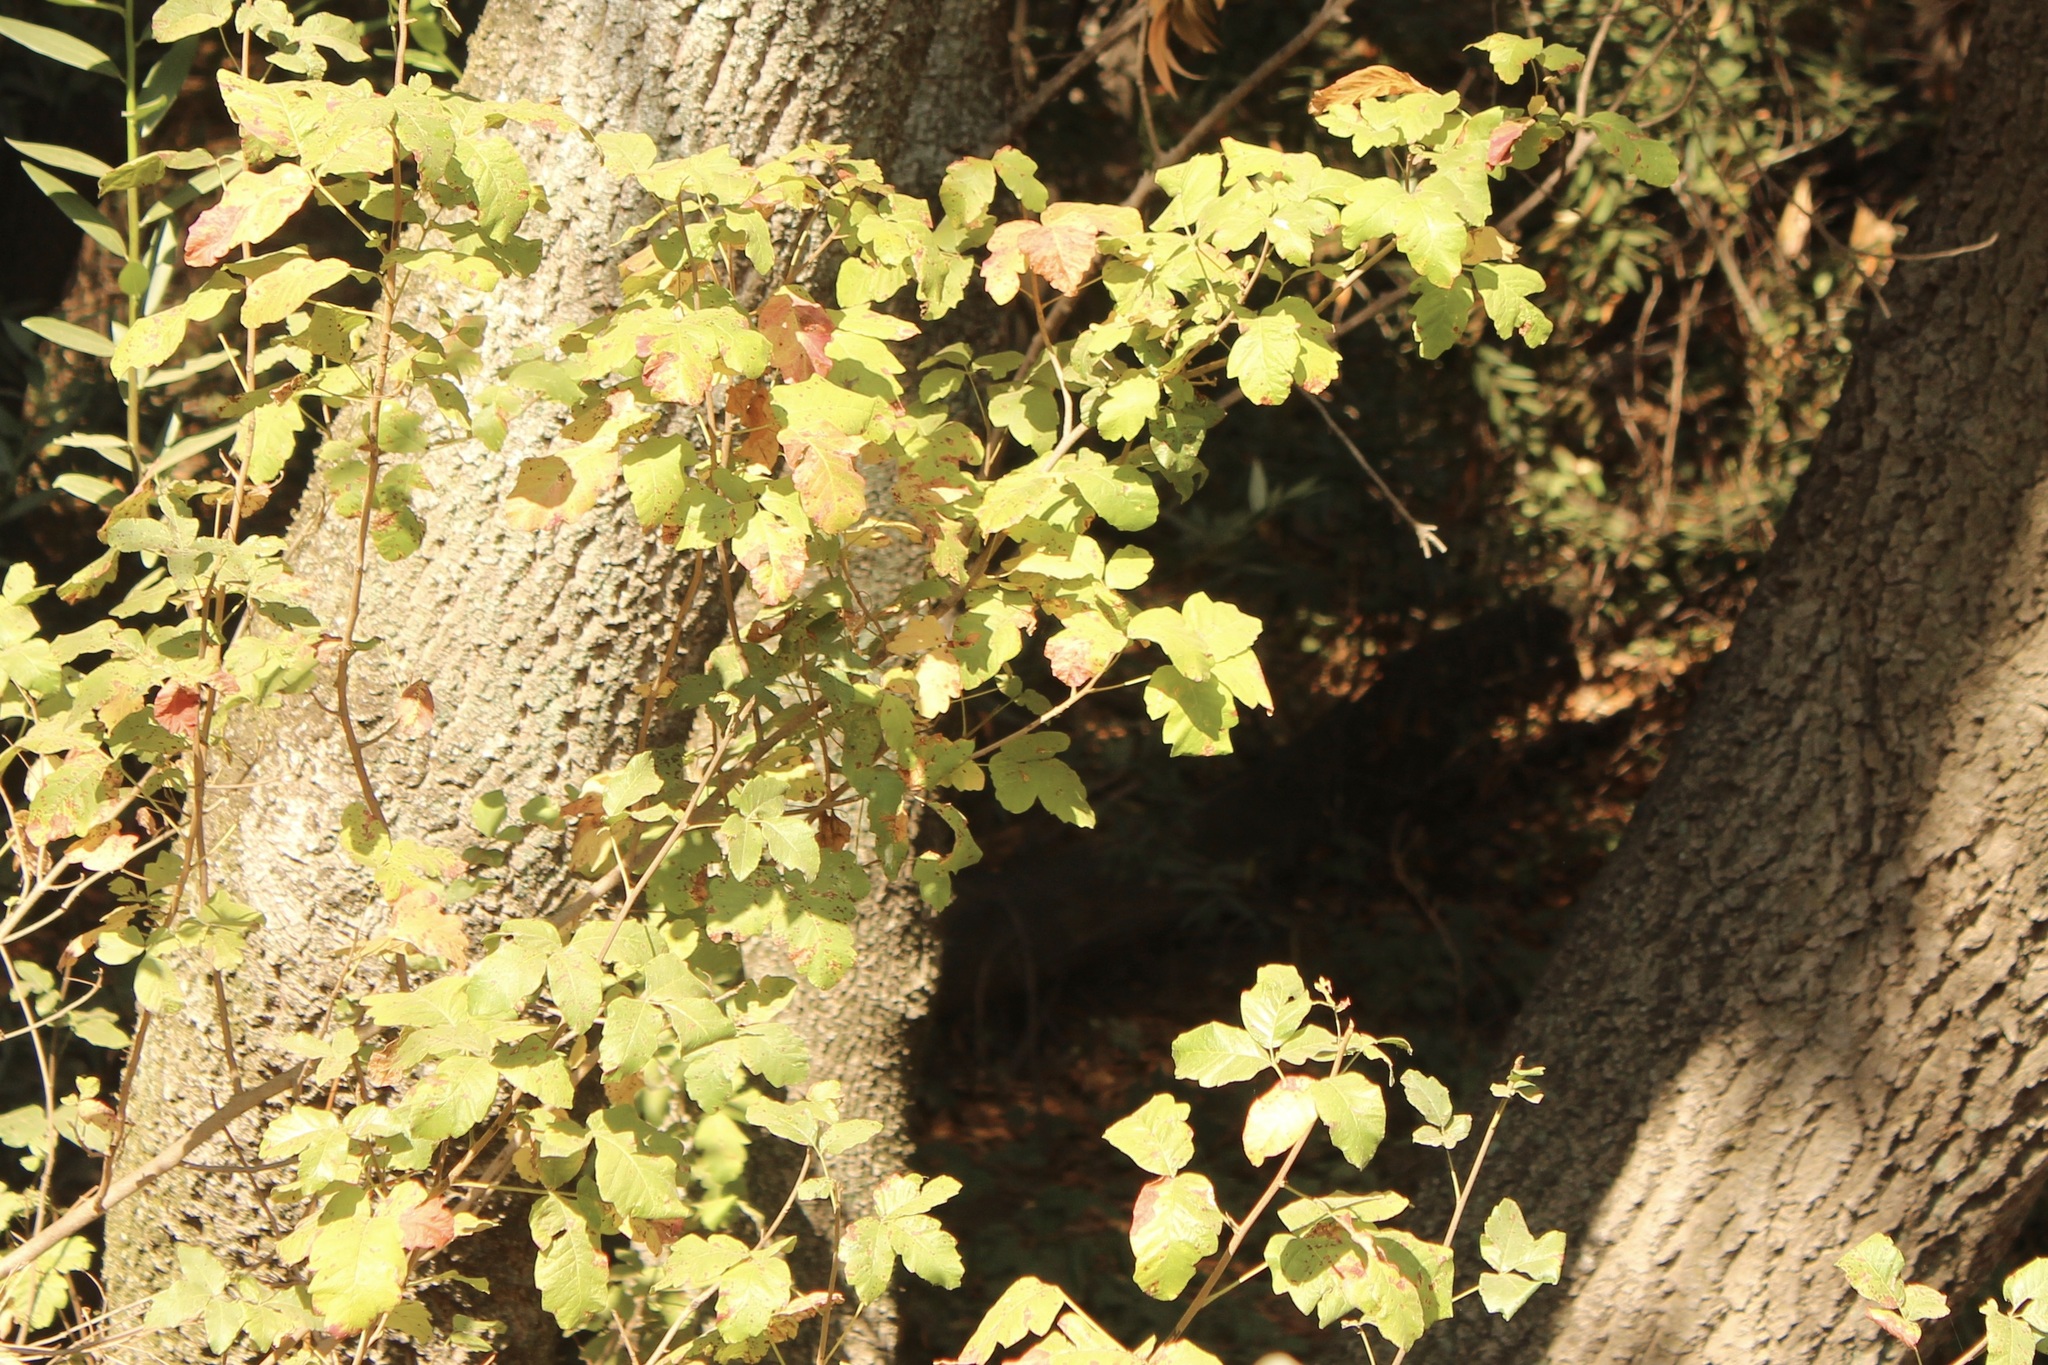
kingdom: Plantae
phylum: Tracheophyta
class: Magnoliopsida
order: Sapindales
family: Anacardiaceae
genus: Toxicodendron
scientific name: Toxicodendron diversilobum
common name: Pacific poison-oak
